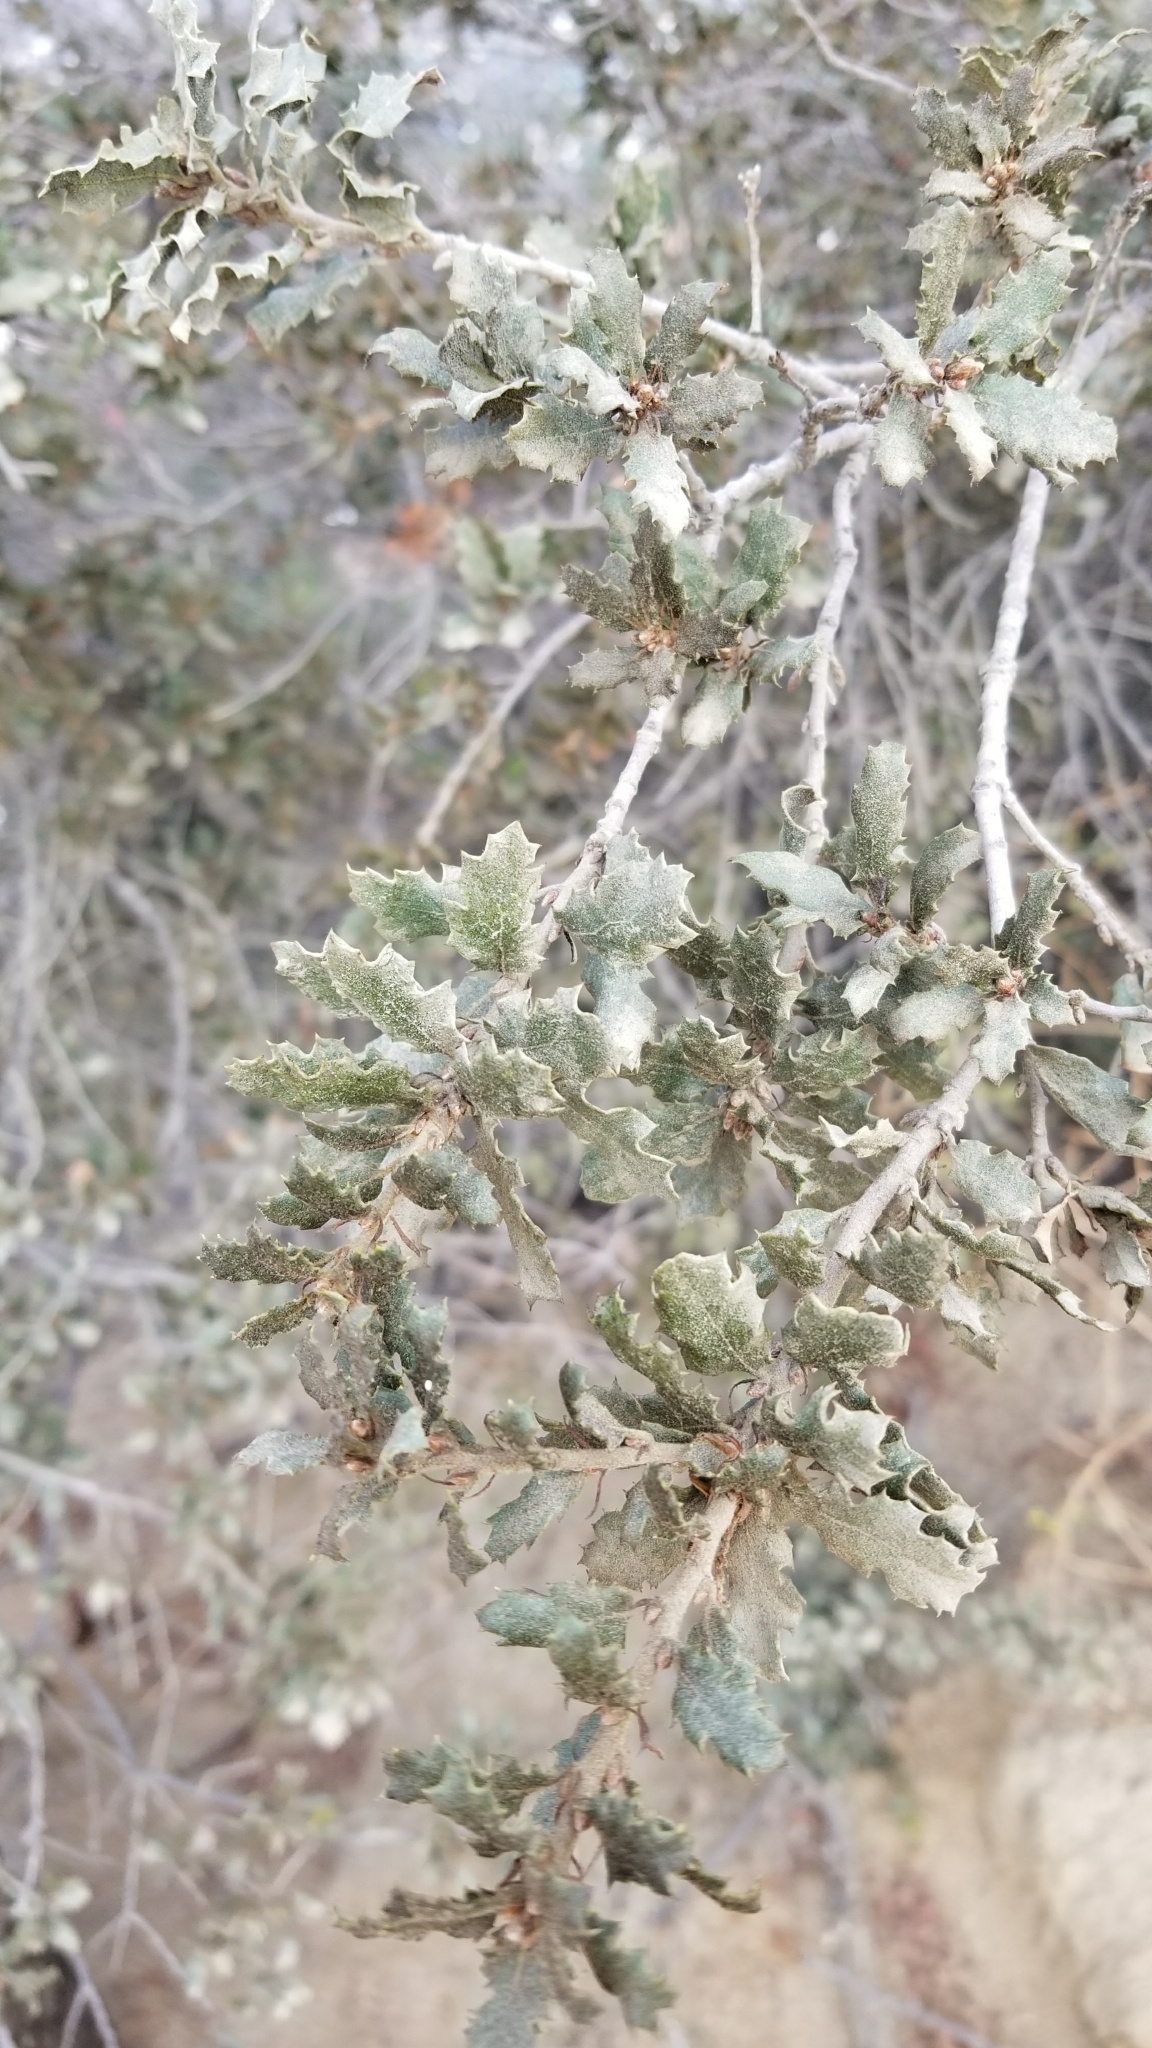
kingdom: Plantae
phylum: Tracheophyta
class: Magnoliopsida
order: Fagales
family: Fagaceae
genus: Quercus
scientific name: Quercus berberidifolia
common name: California scrub oak
